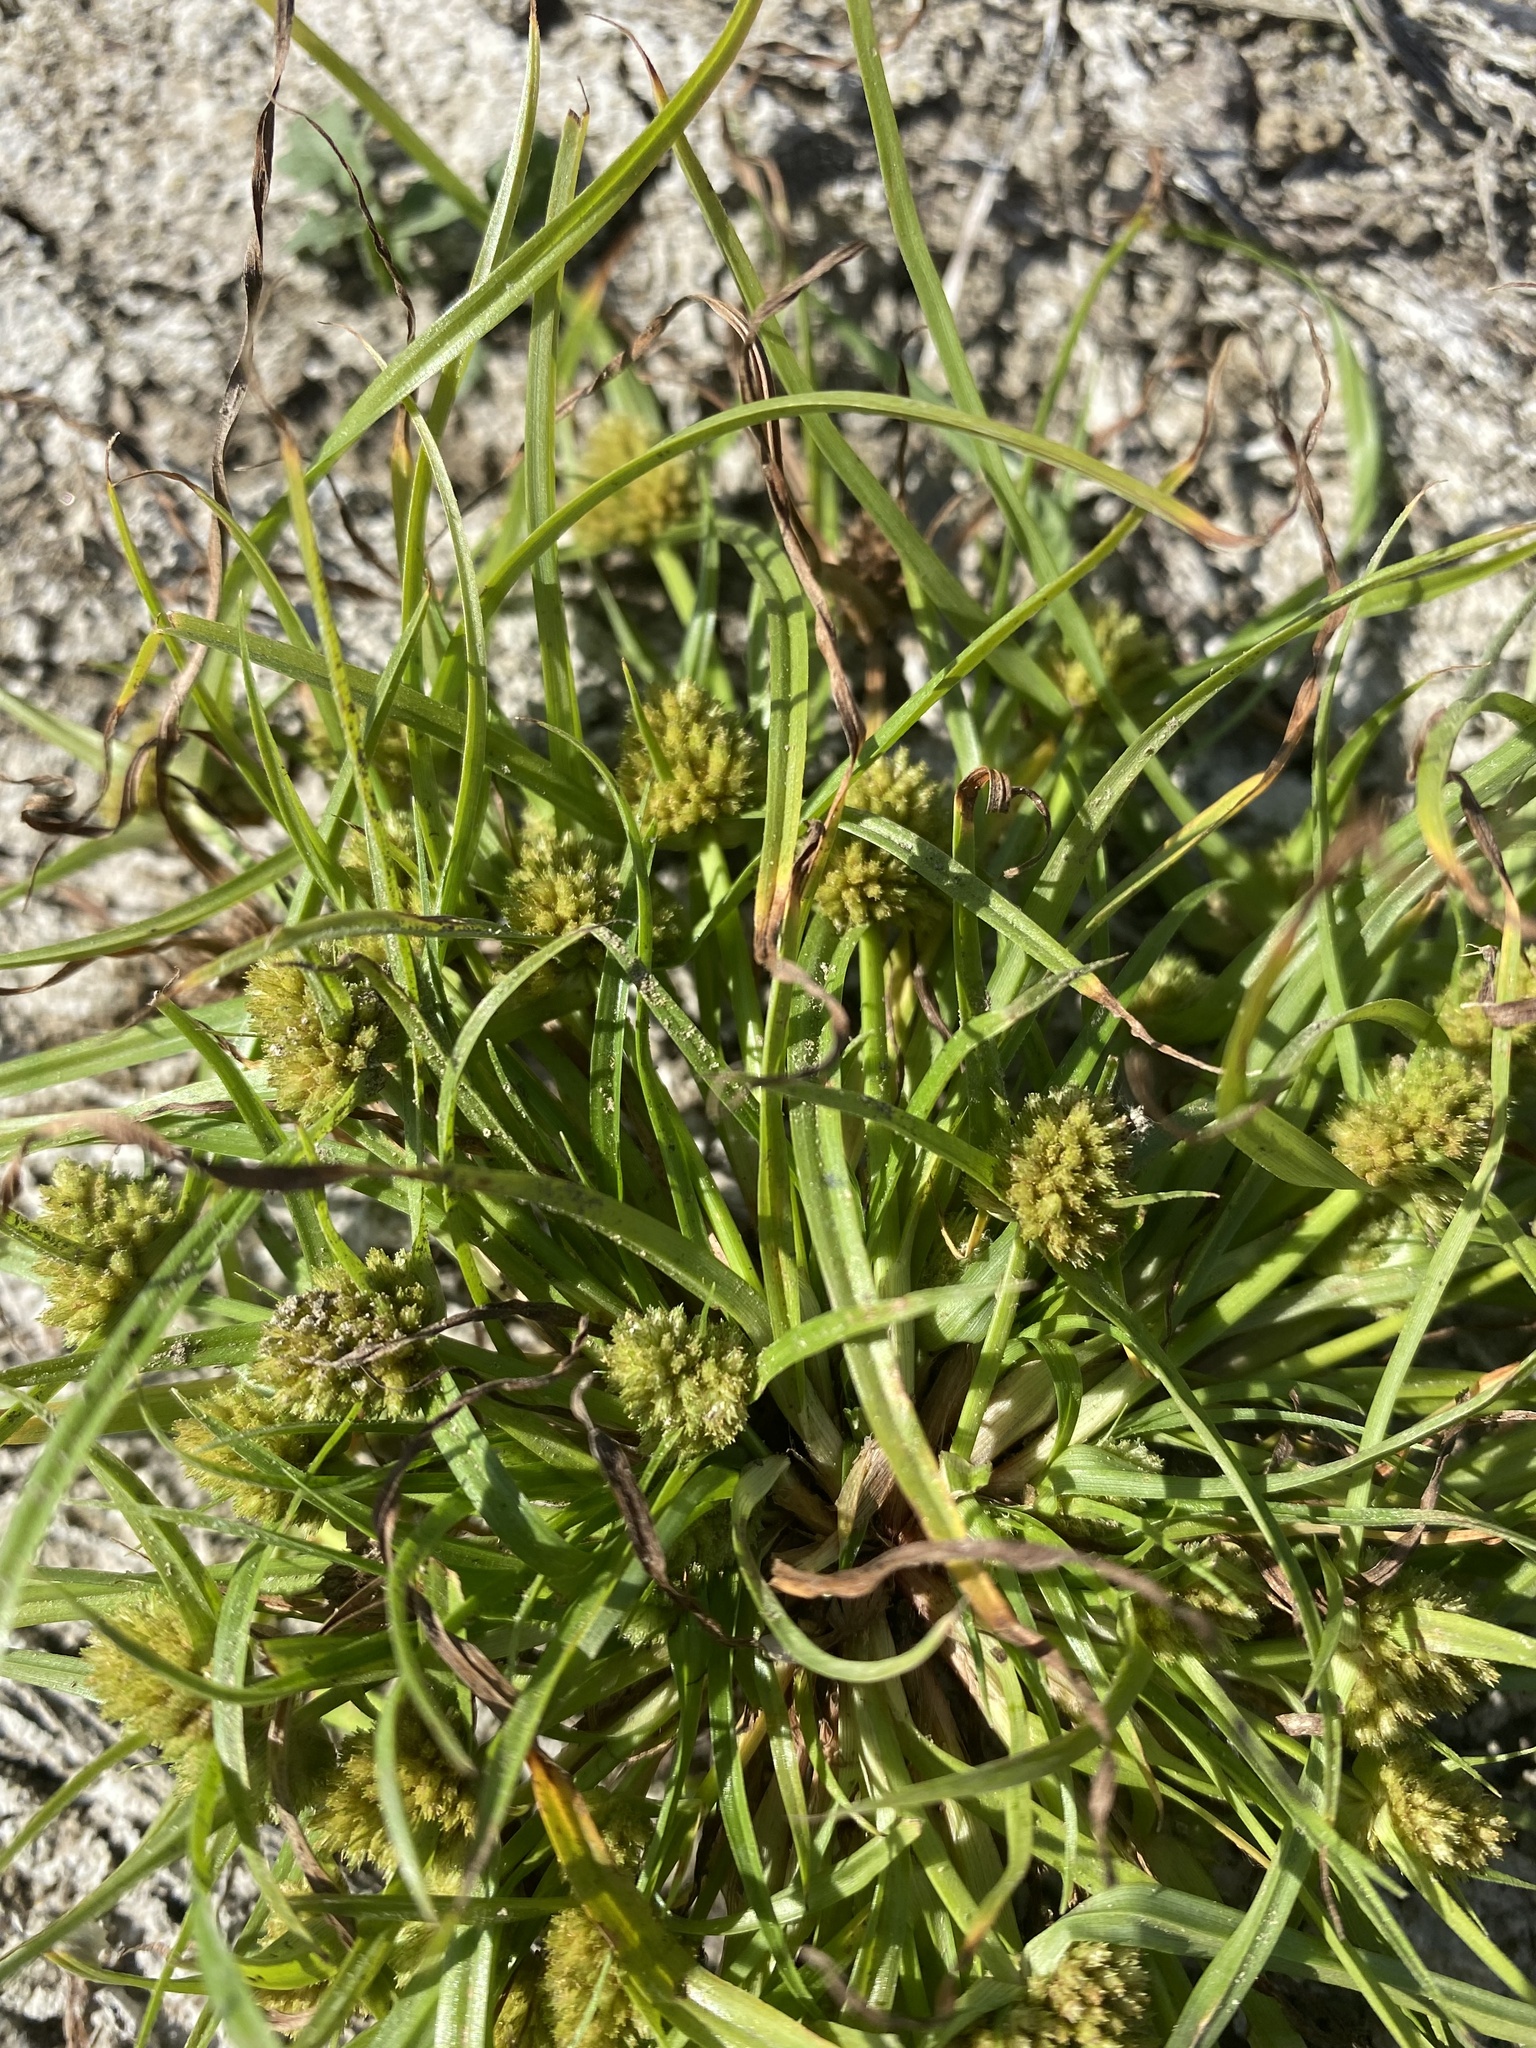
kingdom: Plantae
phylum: Tracheophyta
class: Liliopsida
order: Poales
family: Cyperaceae
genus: Cyperus
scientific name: Cyperus michelianus
